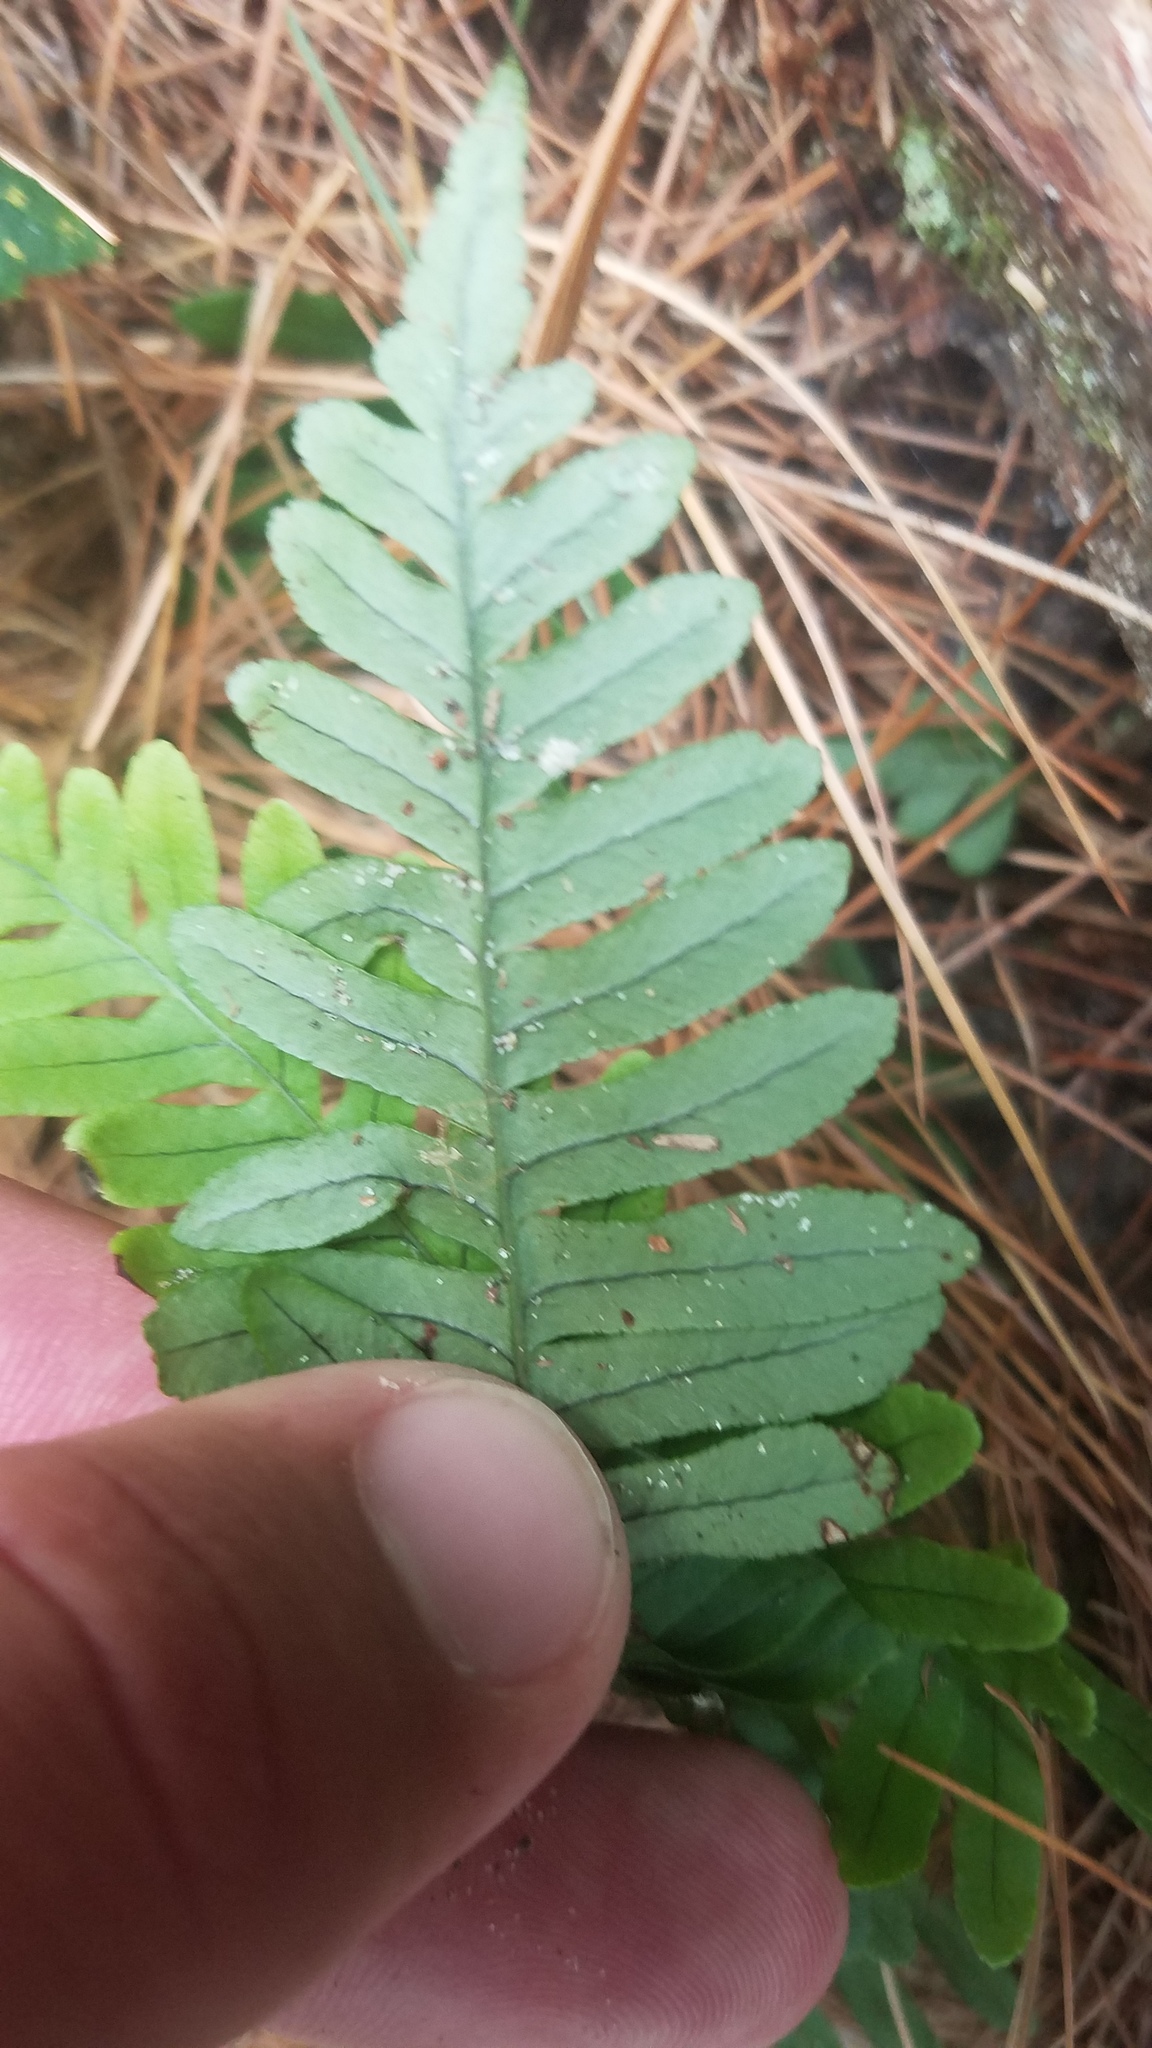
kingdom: Plantae
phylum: Tracheophyta
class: Polypodiopsida
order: Polypodiales
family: Polypodiaceae
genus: Polypodium
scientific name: Polypodium virginianum
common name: American wall fern
